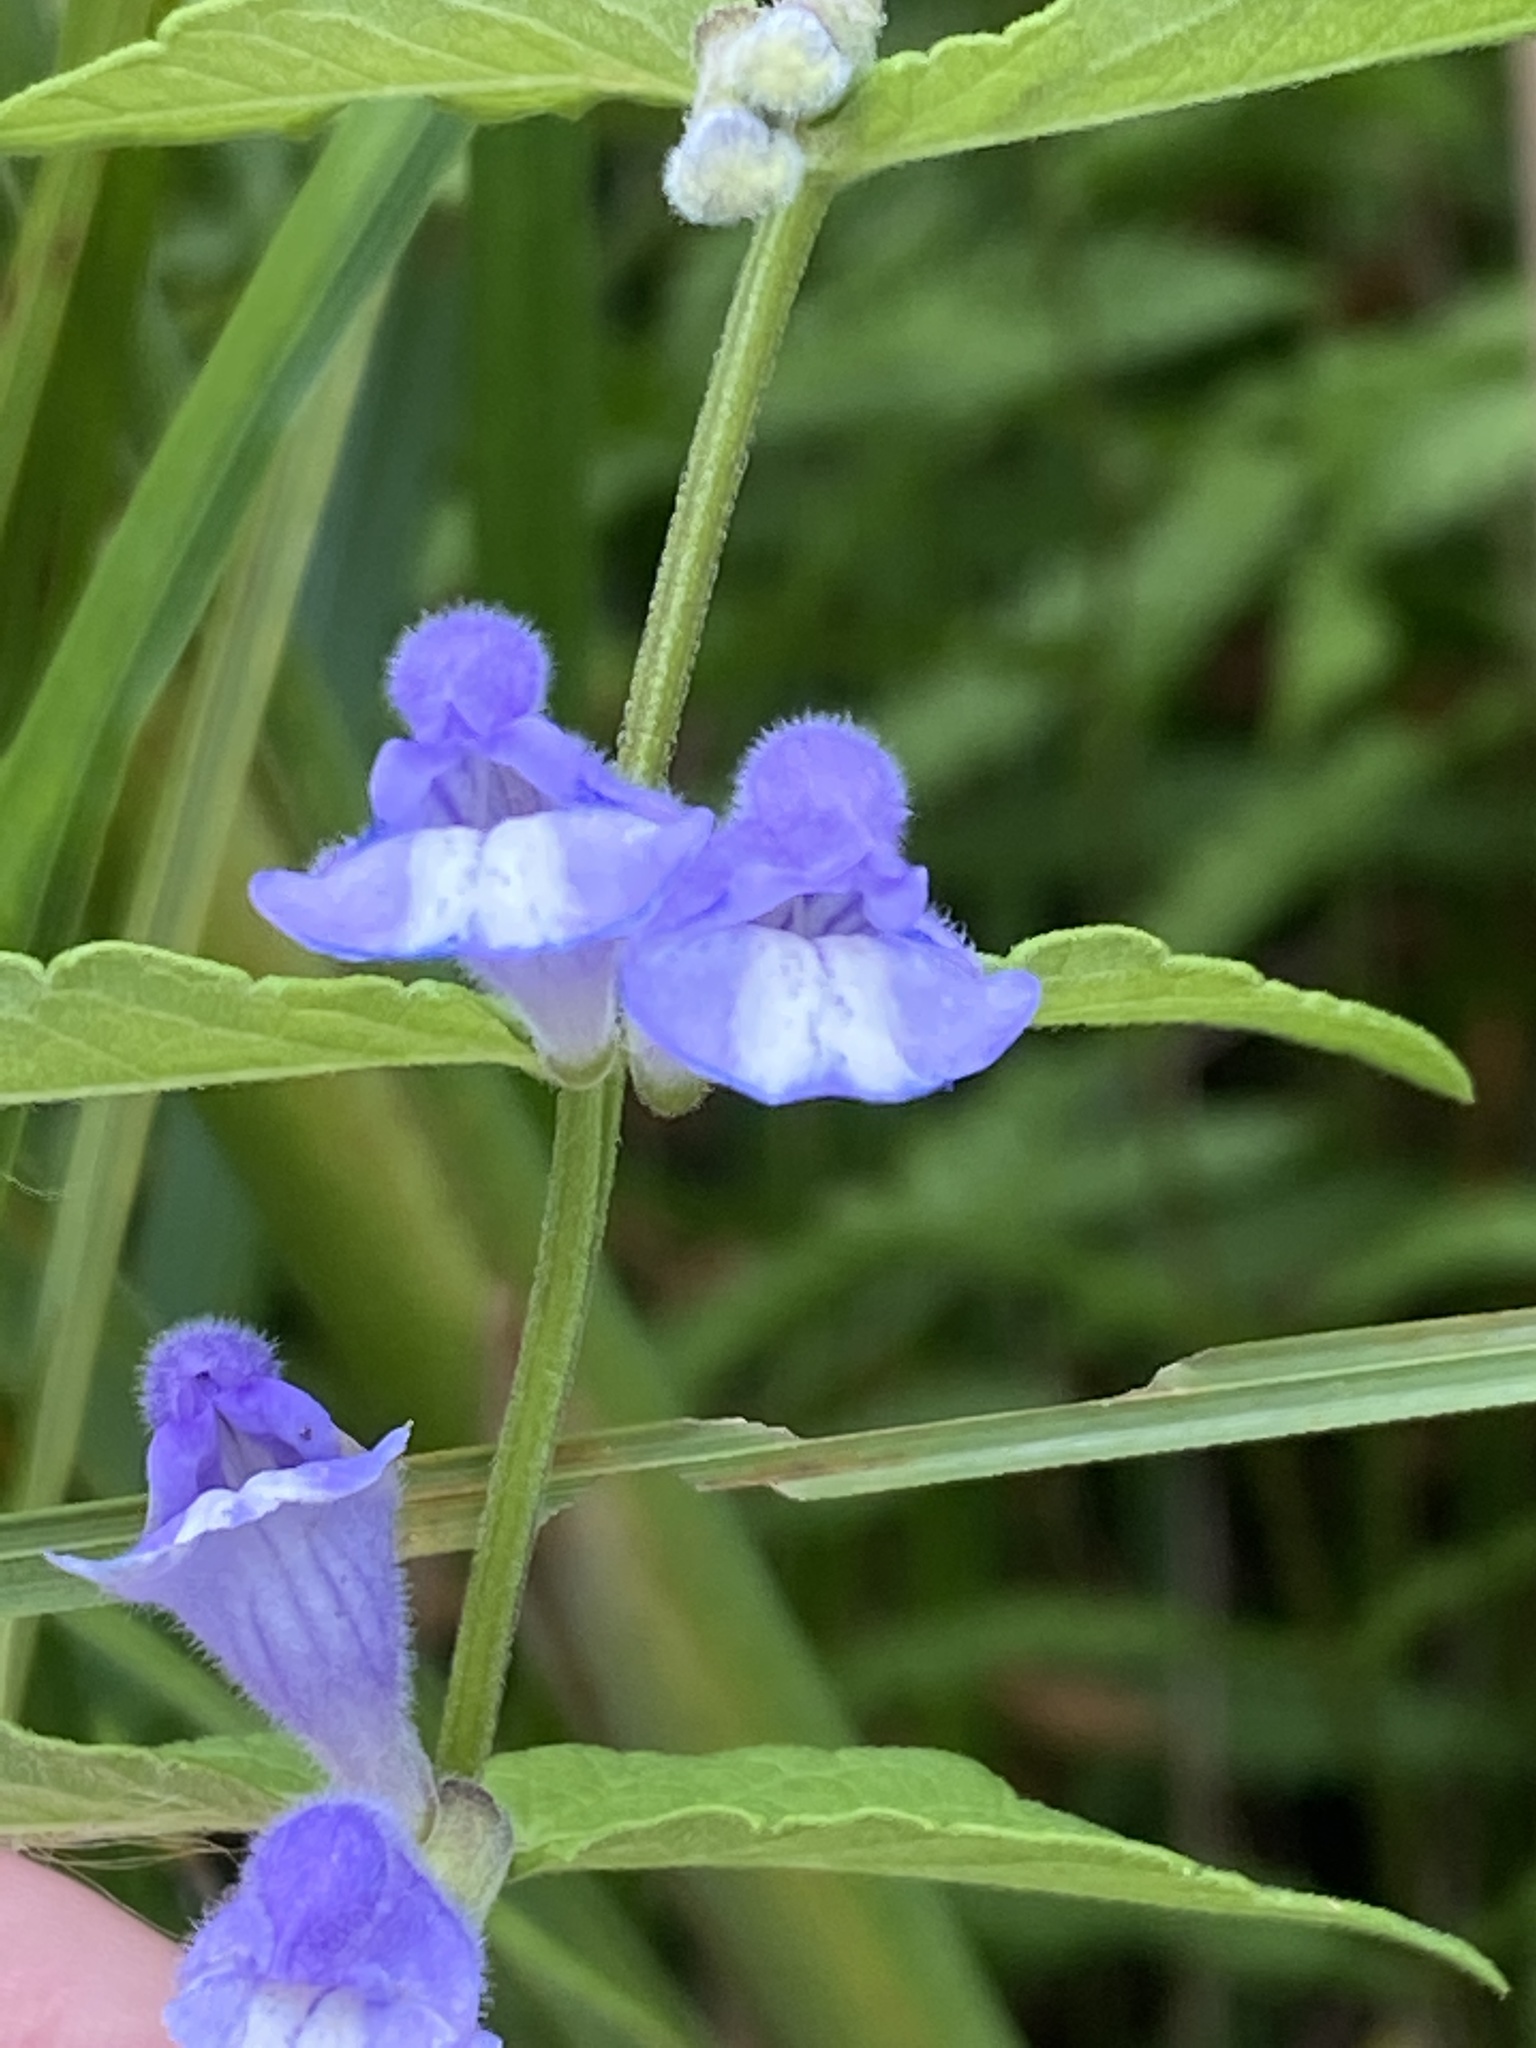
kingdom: Plantae
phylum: Tracheophyta
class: Magnoliopsida
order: Lamiales
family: Lamiaceae
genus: Scutellaria
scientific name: Scutellaria galericulata
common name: Skullcap
